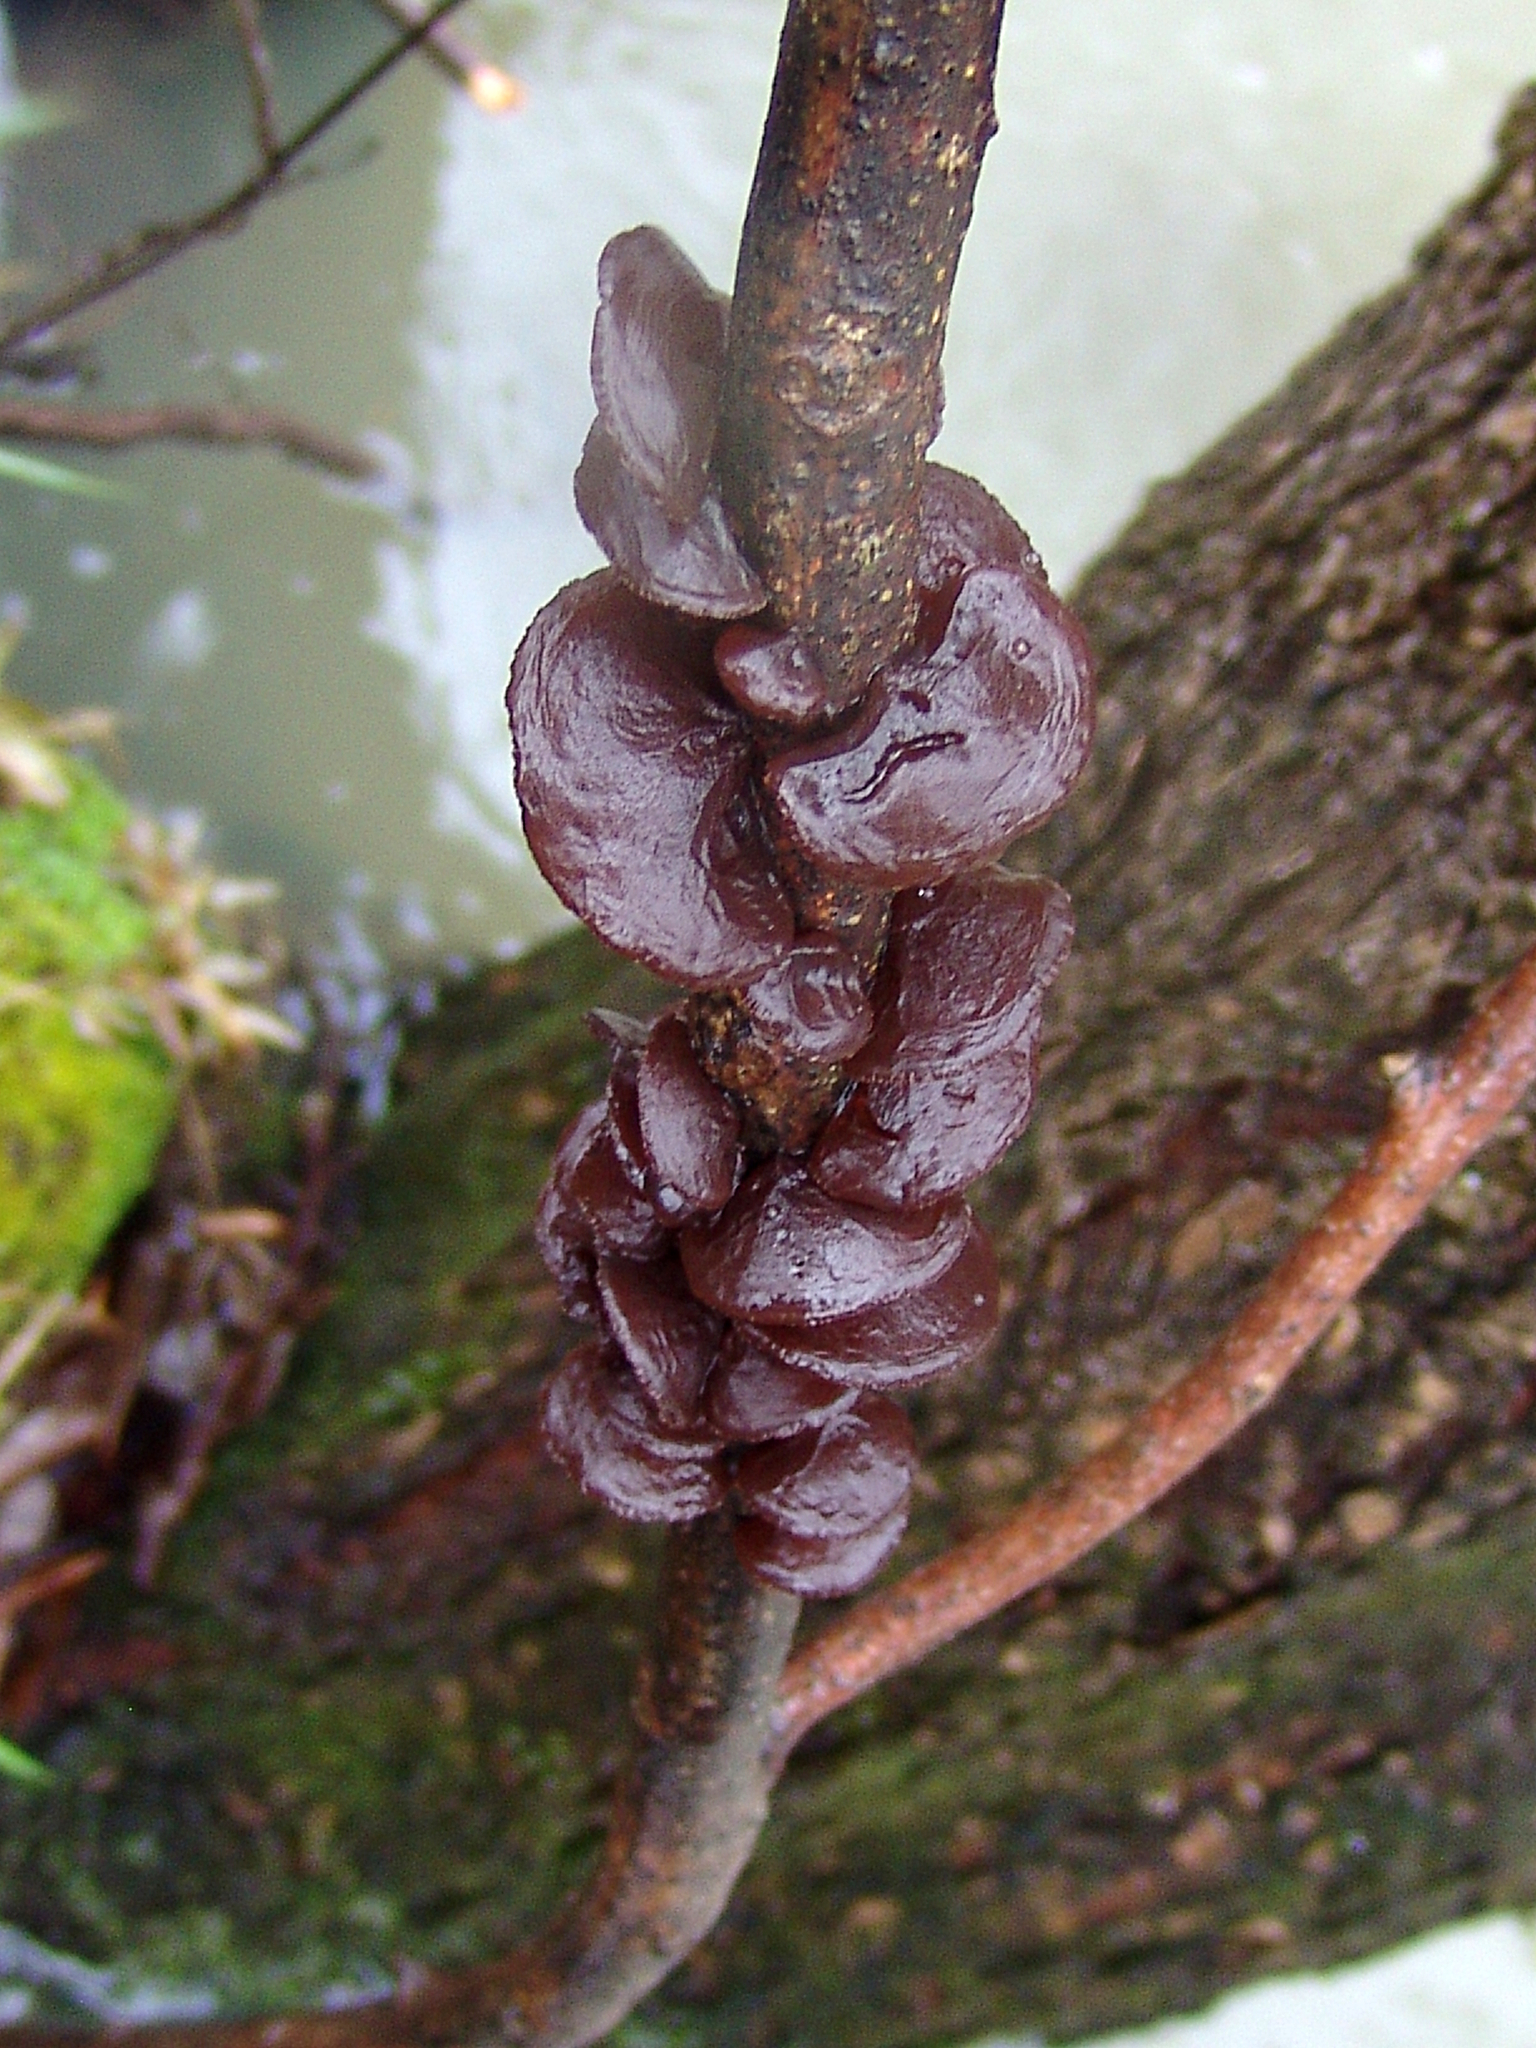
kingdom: Fungi
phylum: Basidiomycota
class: Agaricomycetes
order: Auriculariales
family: Auriculariaceae
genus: Exidia
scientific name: Exidia
